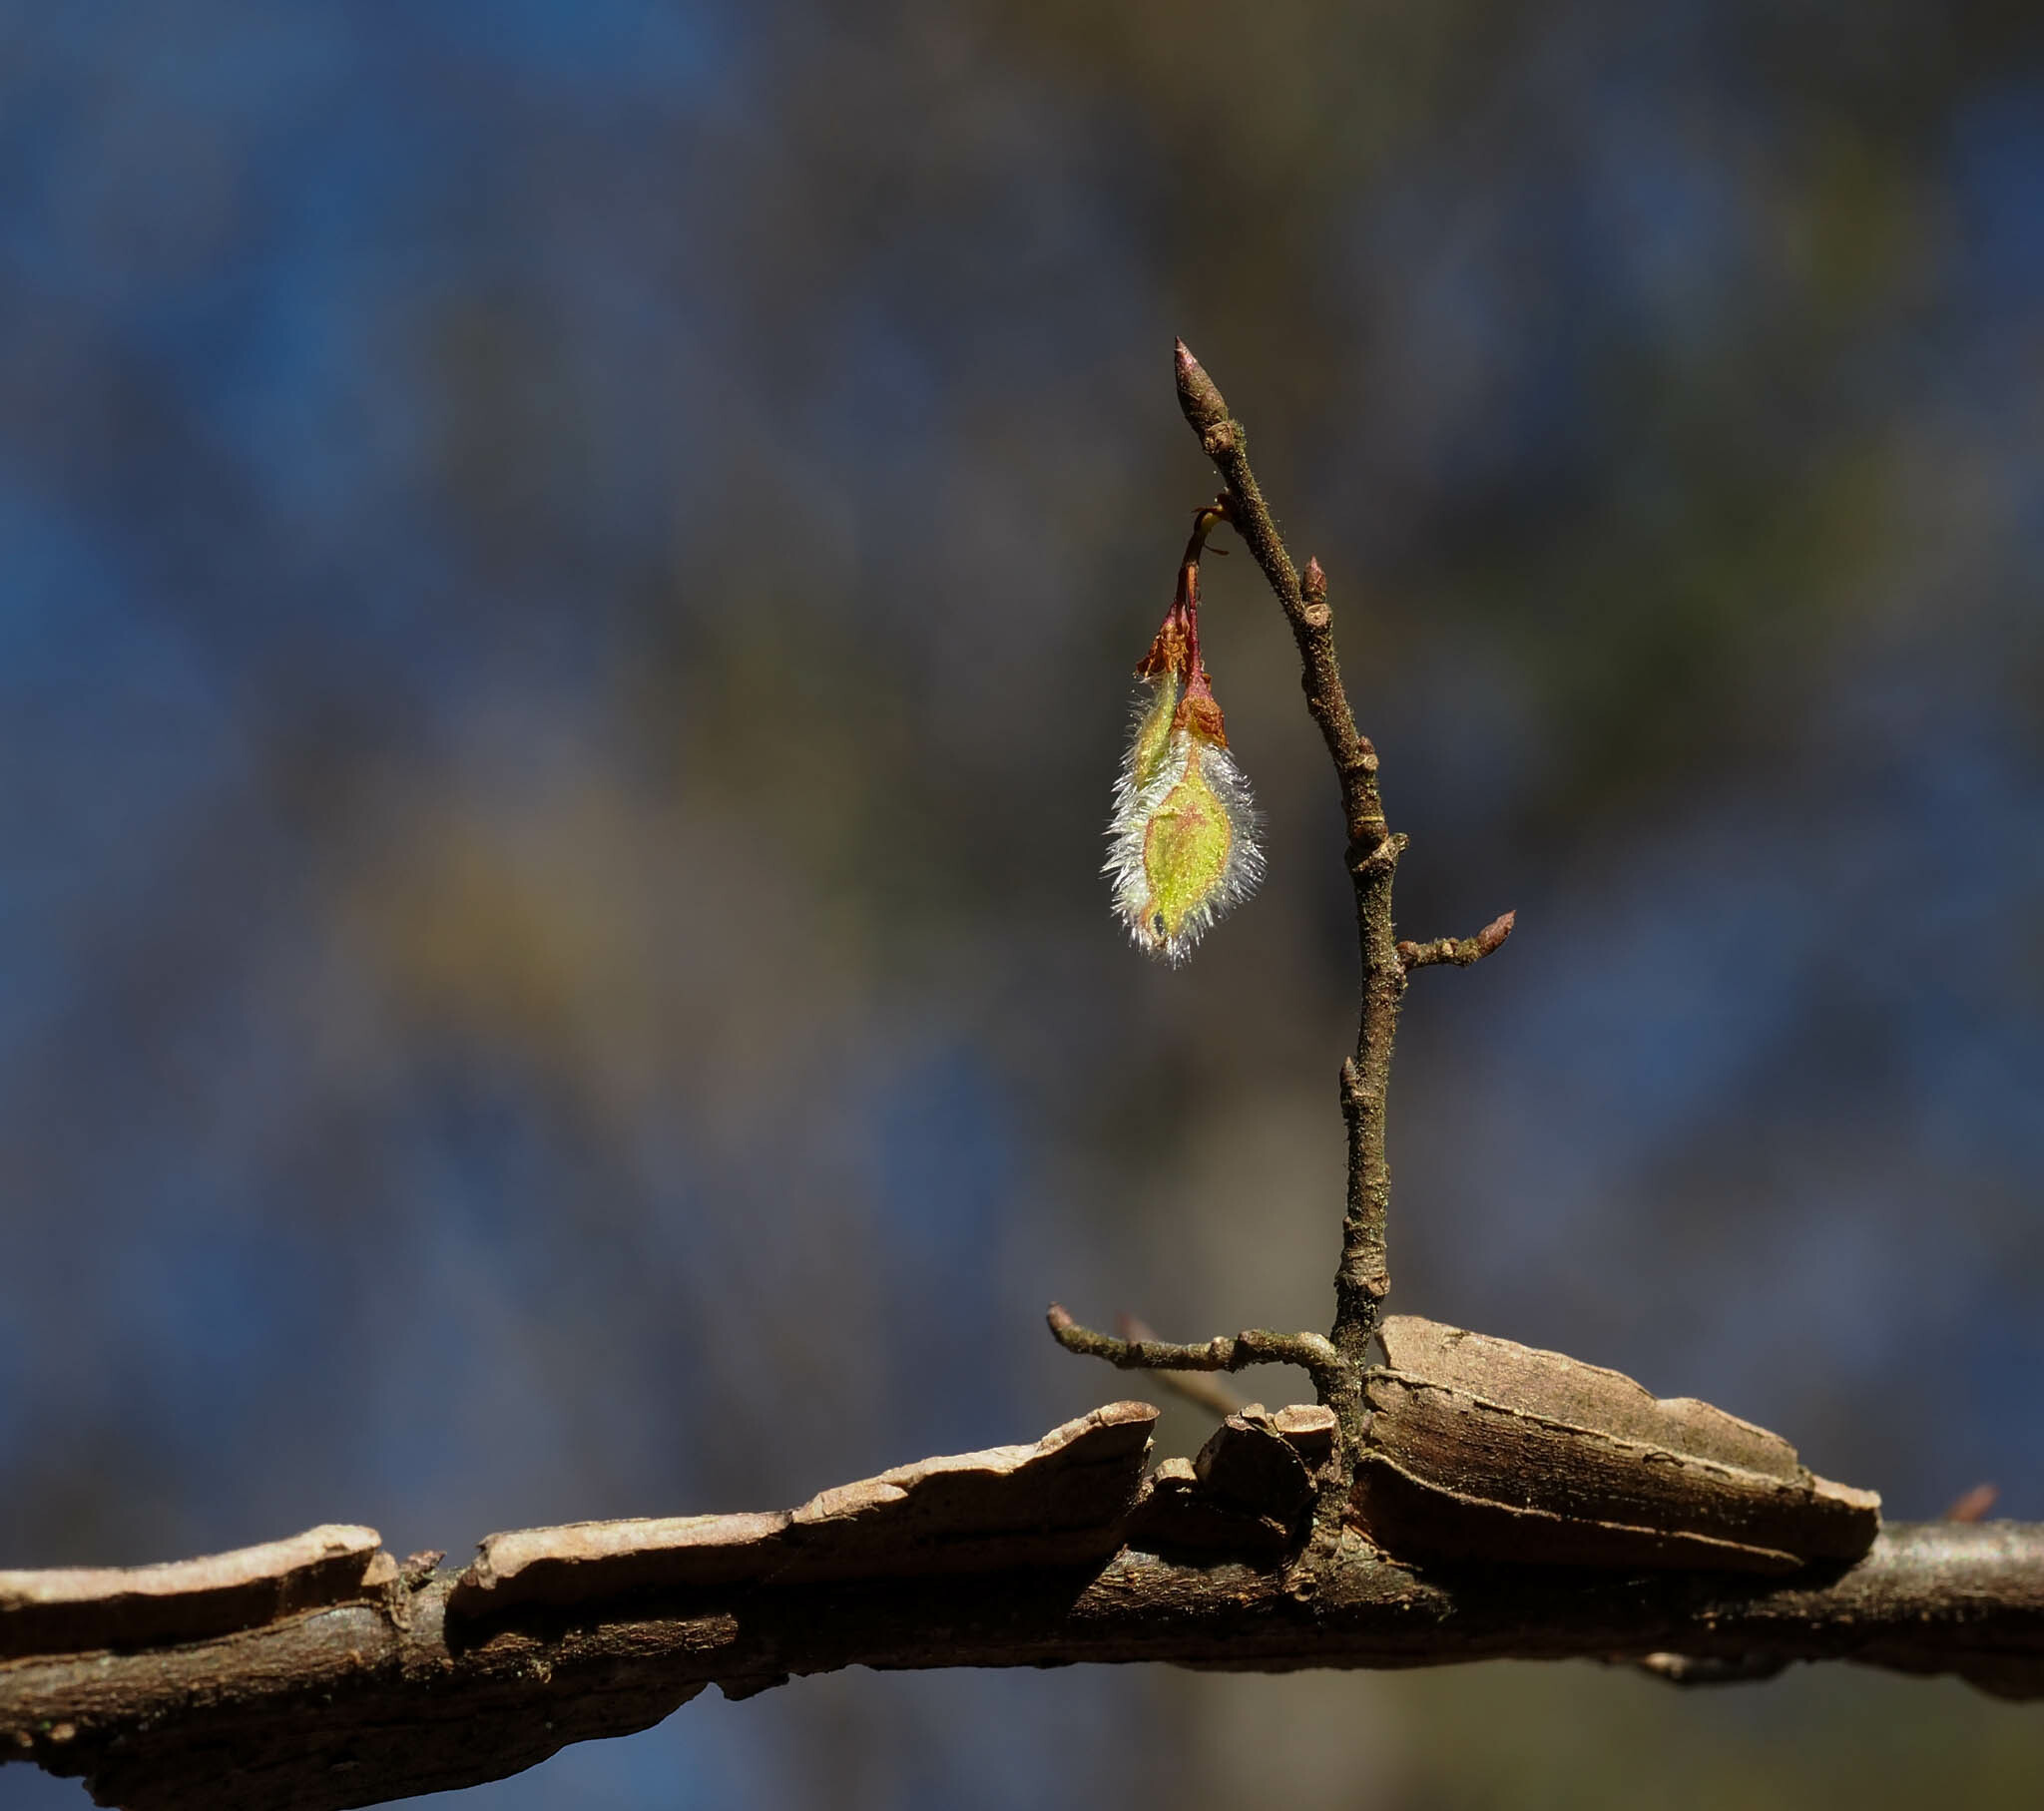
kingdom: Plantae
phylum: Tracheophyta
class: Magnoliopsida
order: Rosales
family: Ulmaceae
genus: Ulmus
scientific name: Ulmus alata
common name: Winged elm
